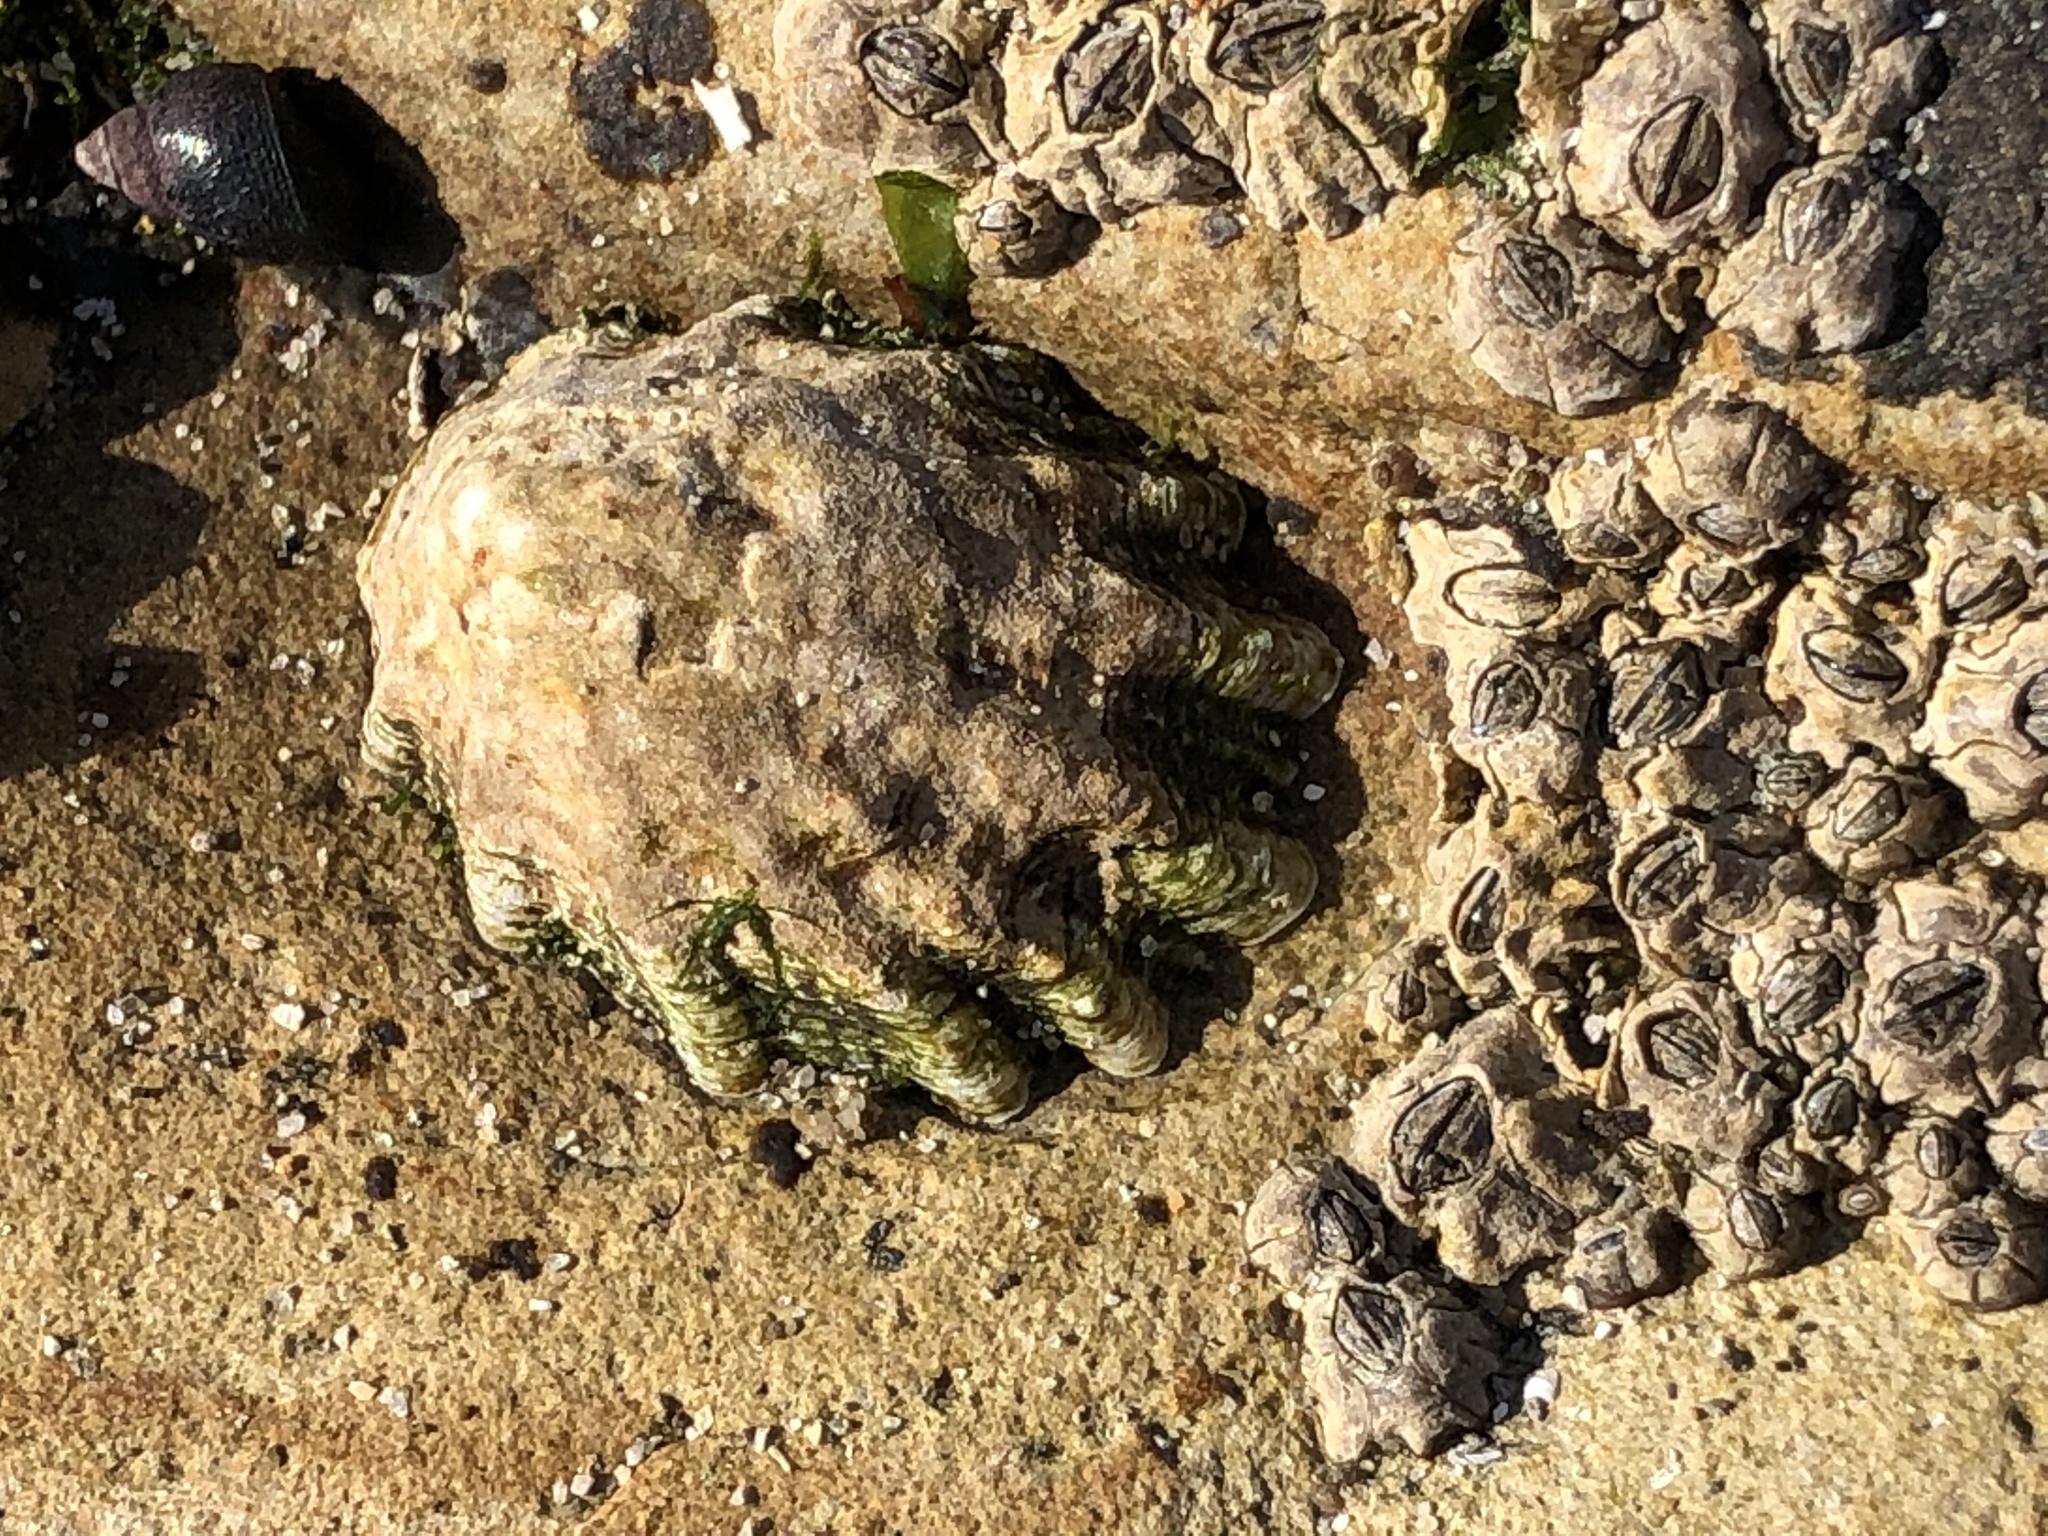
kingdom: Animalia
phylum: Mollusca
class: Gastropoda
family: Lottiidae
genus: Lottia
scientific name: Lottia scabra
